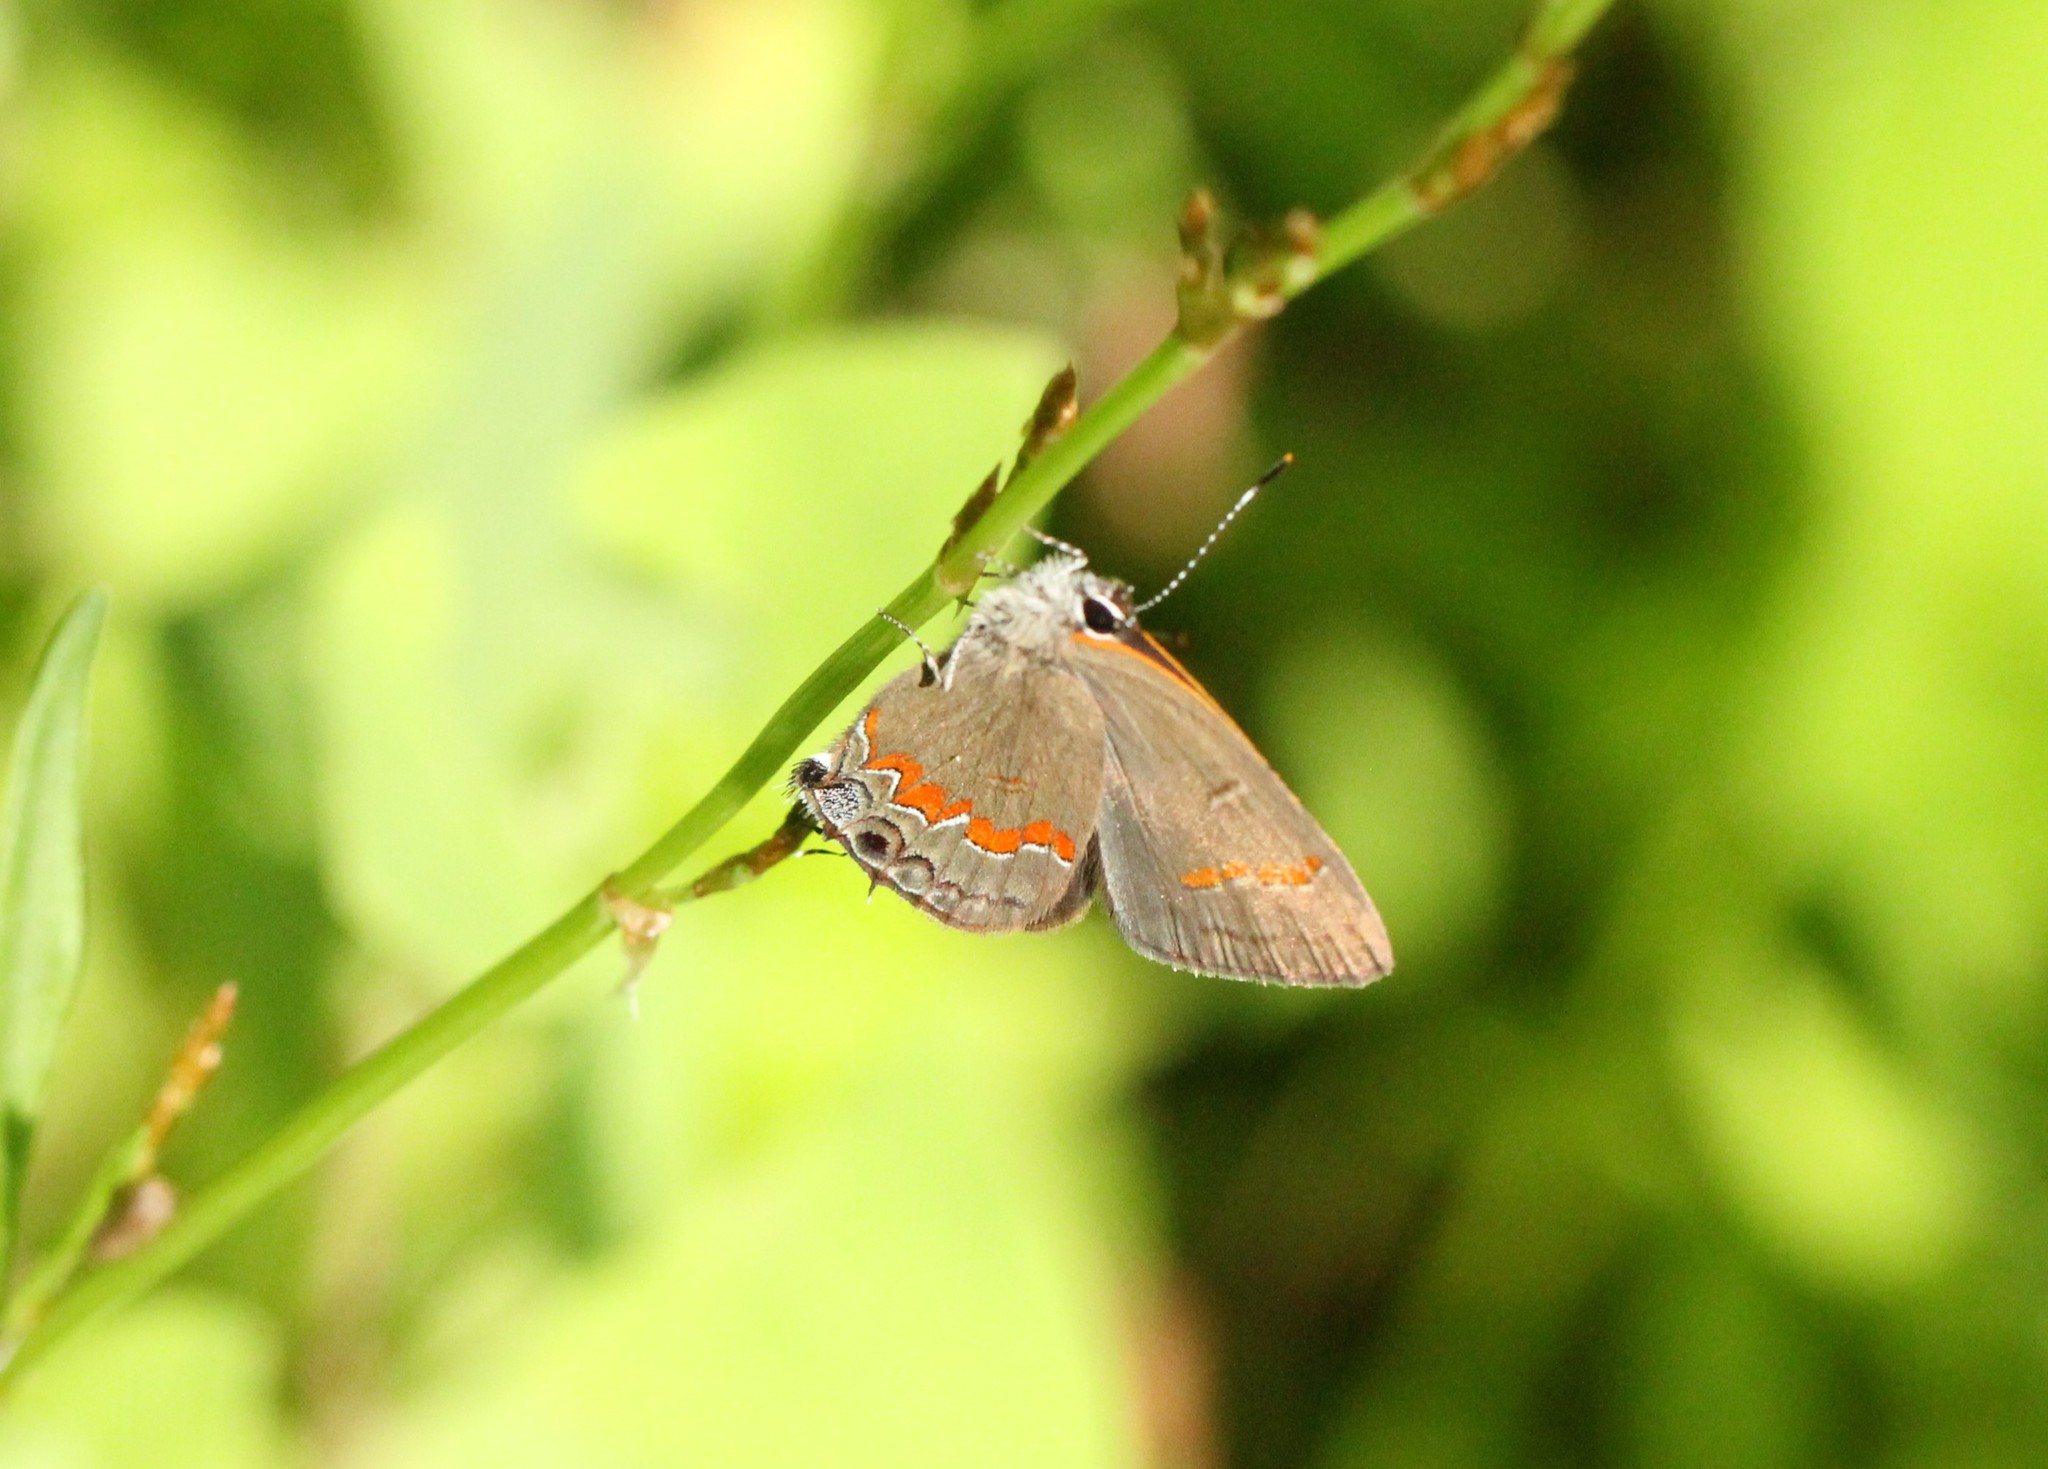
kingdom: Animalia
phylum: Arthropoda
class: Insecta
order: Lepidoptera
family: Lycaenidae
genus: Calycopis
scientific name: Calycopis cecrops
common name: Red-banded hairstreak
